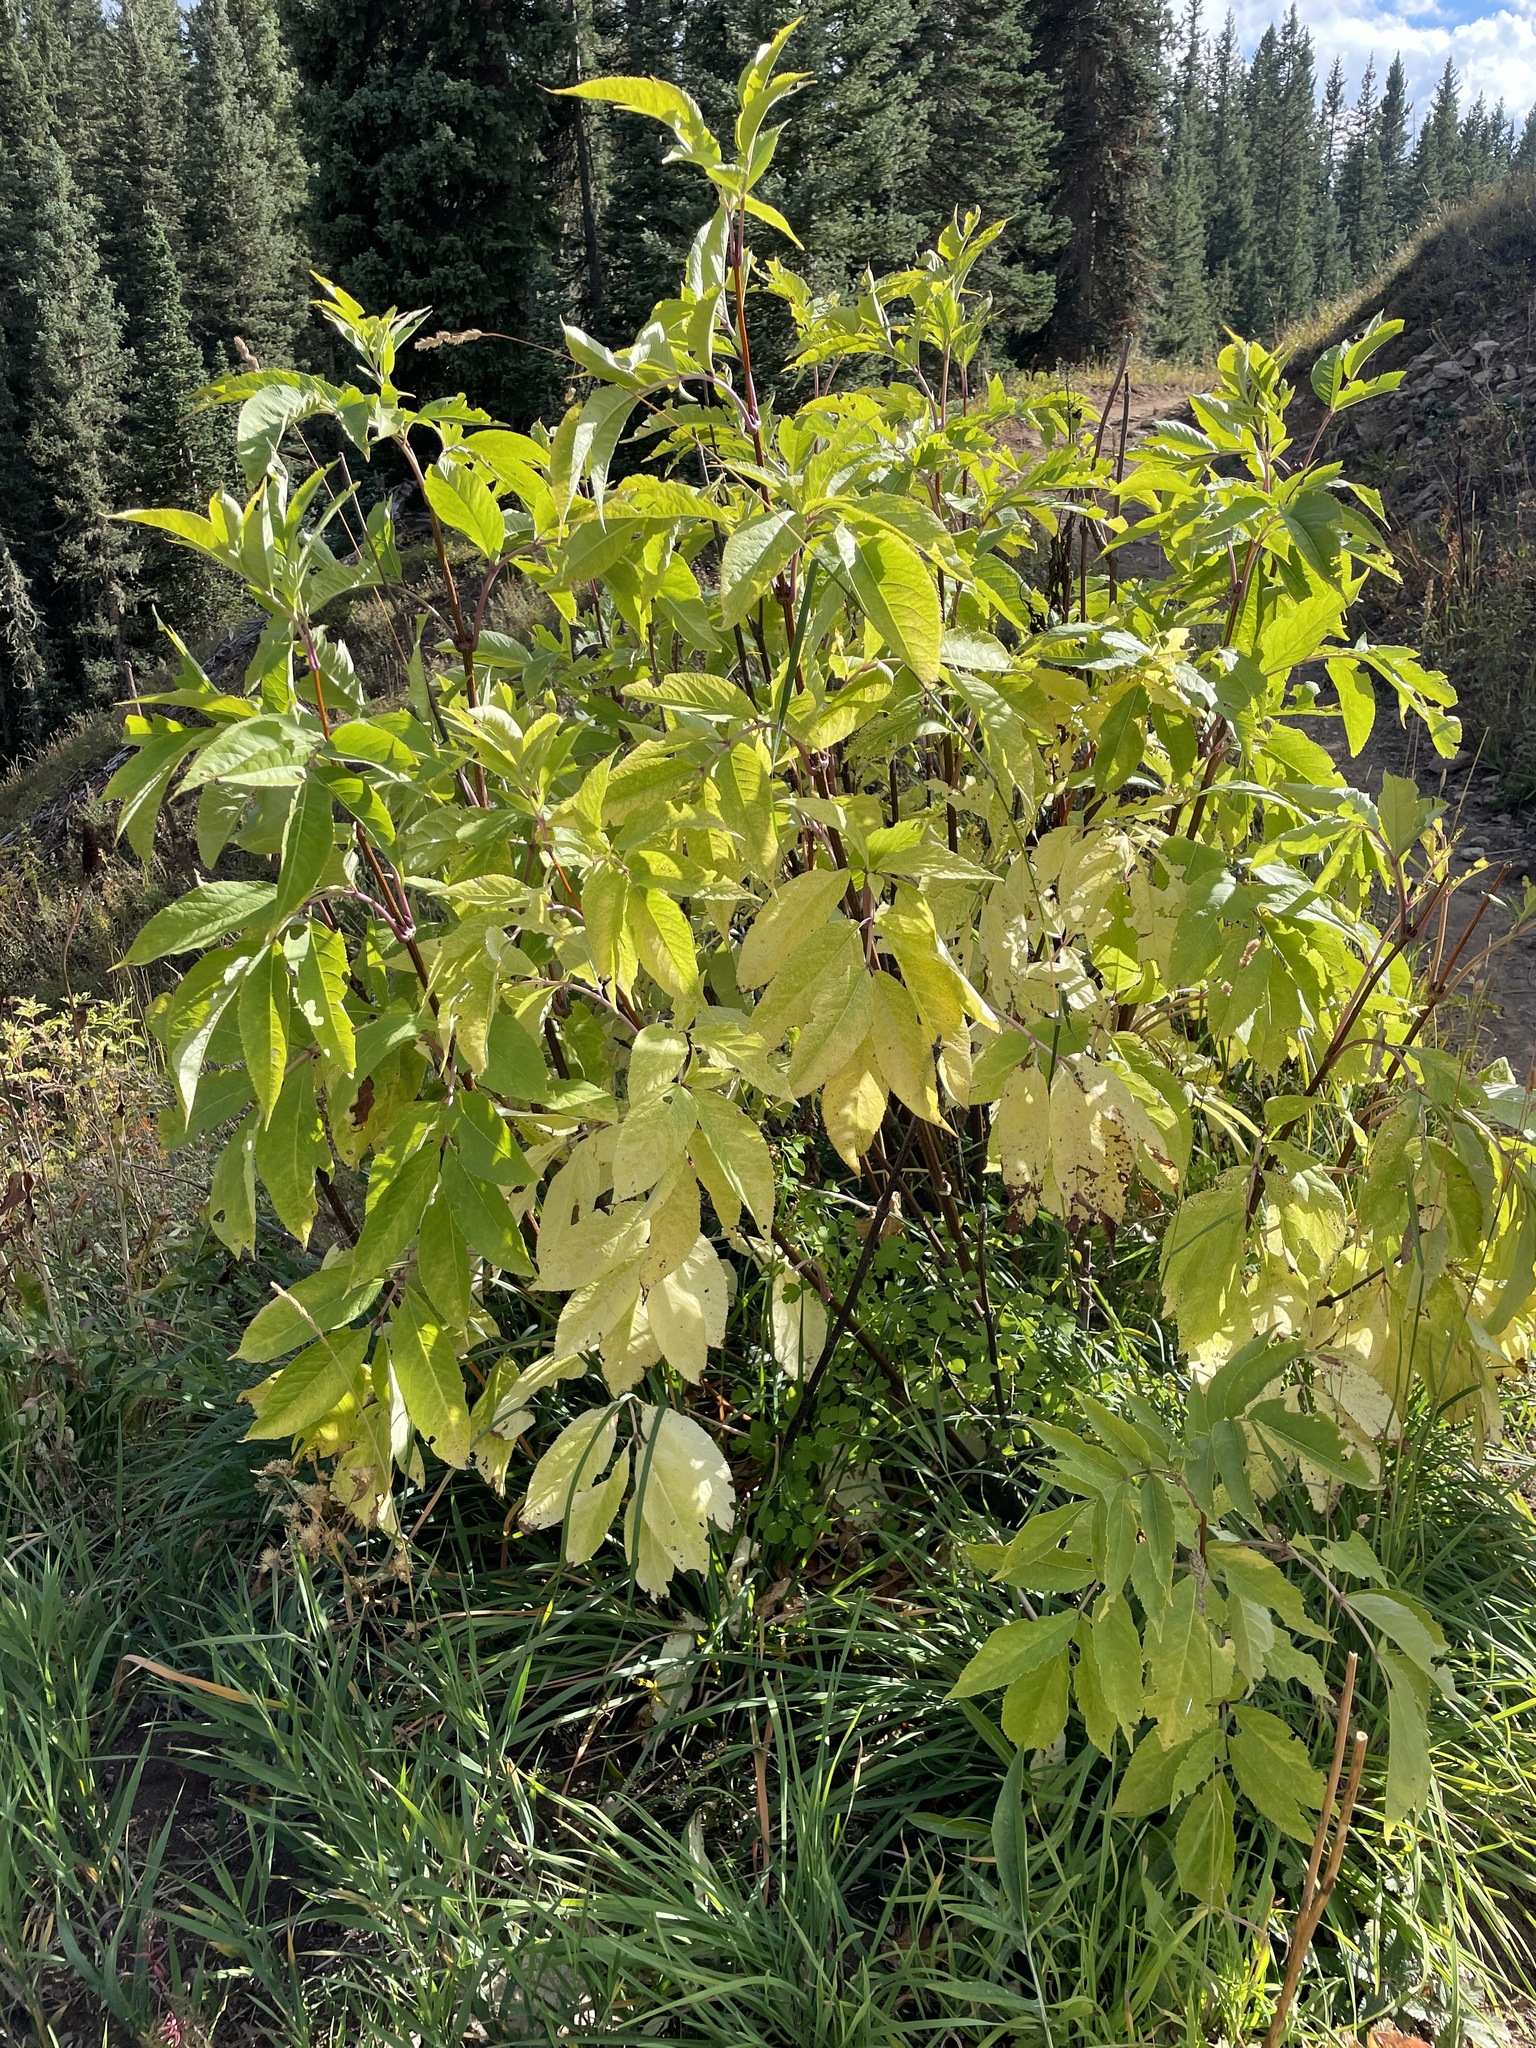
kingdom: Plantae
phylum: Tracheophyta
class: Magnoliopsida
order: Dipsacales
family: Viburnaceae
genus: Sambucus
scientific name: Sambucus racemosa
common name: Red-berried elder
